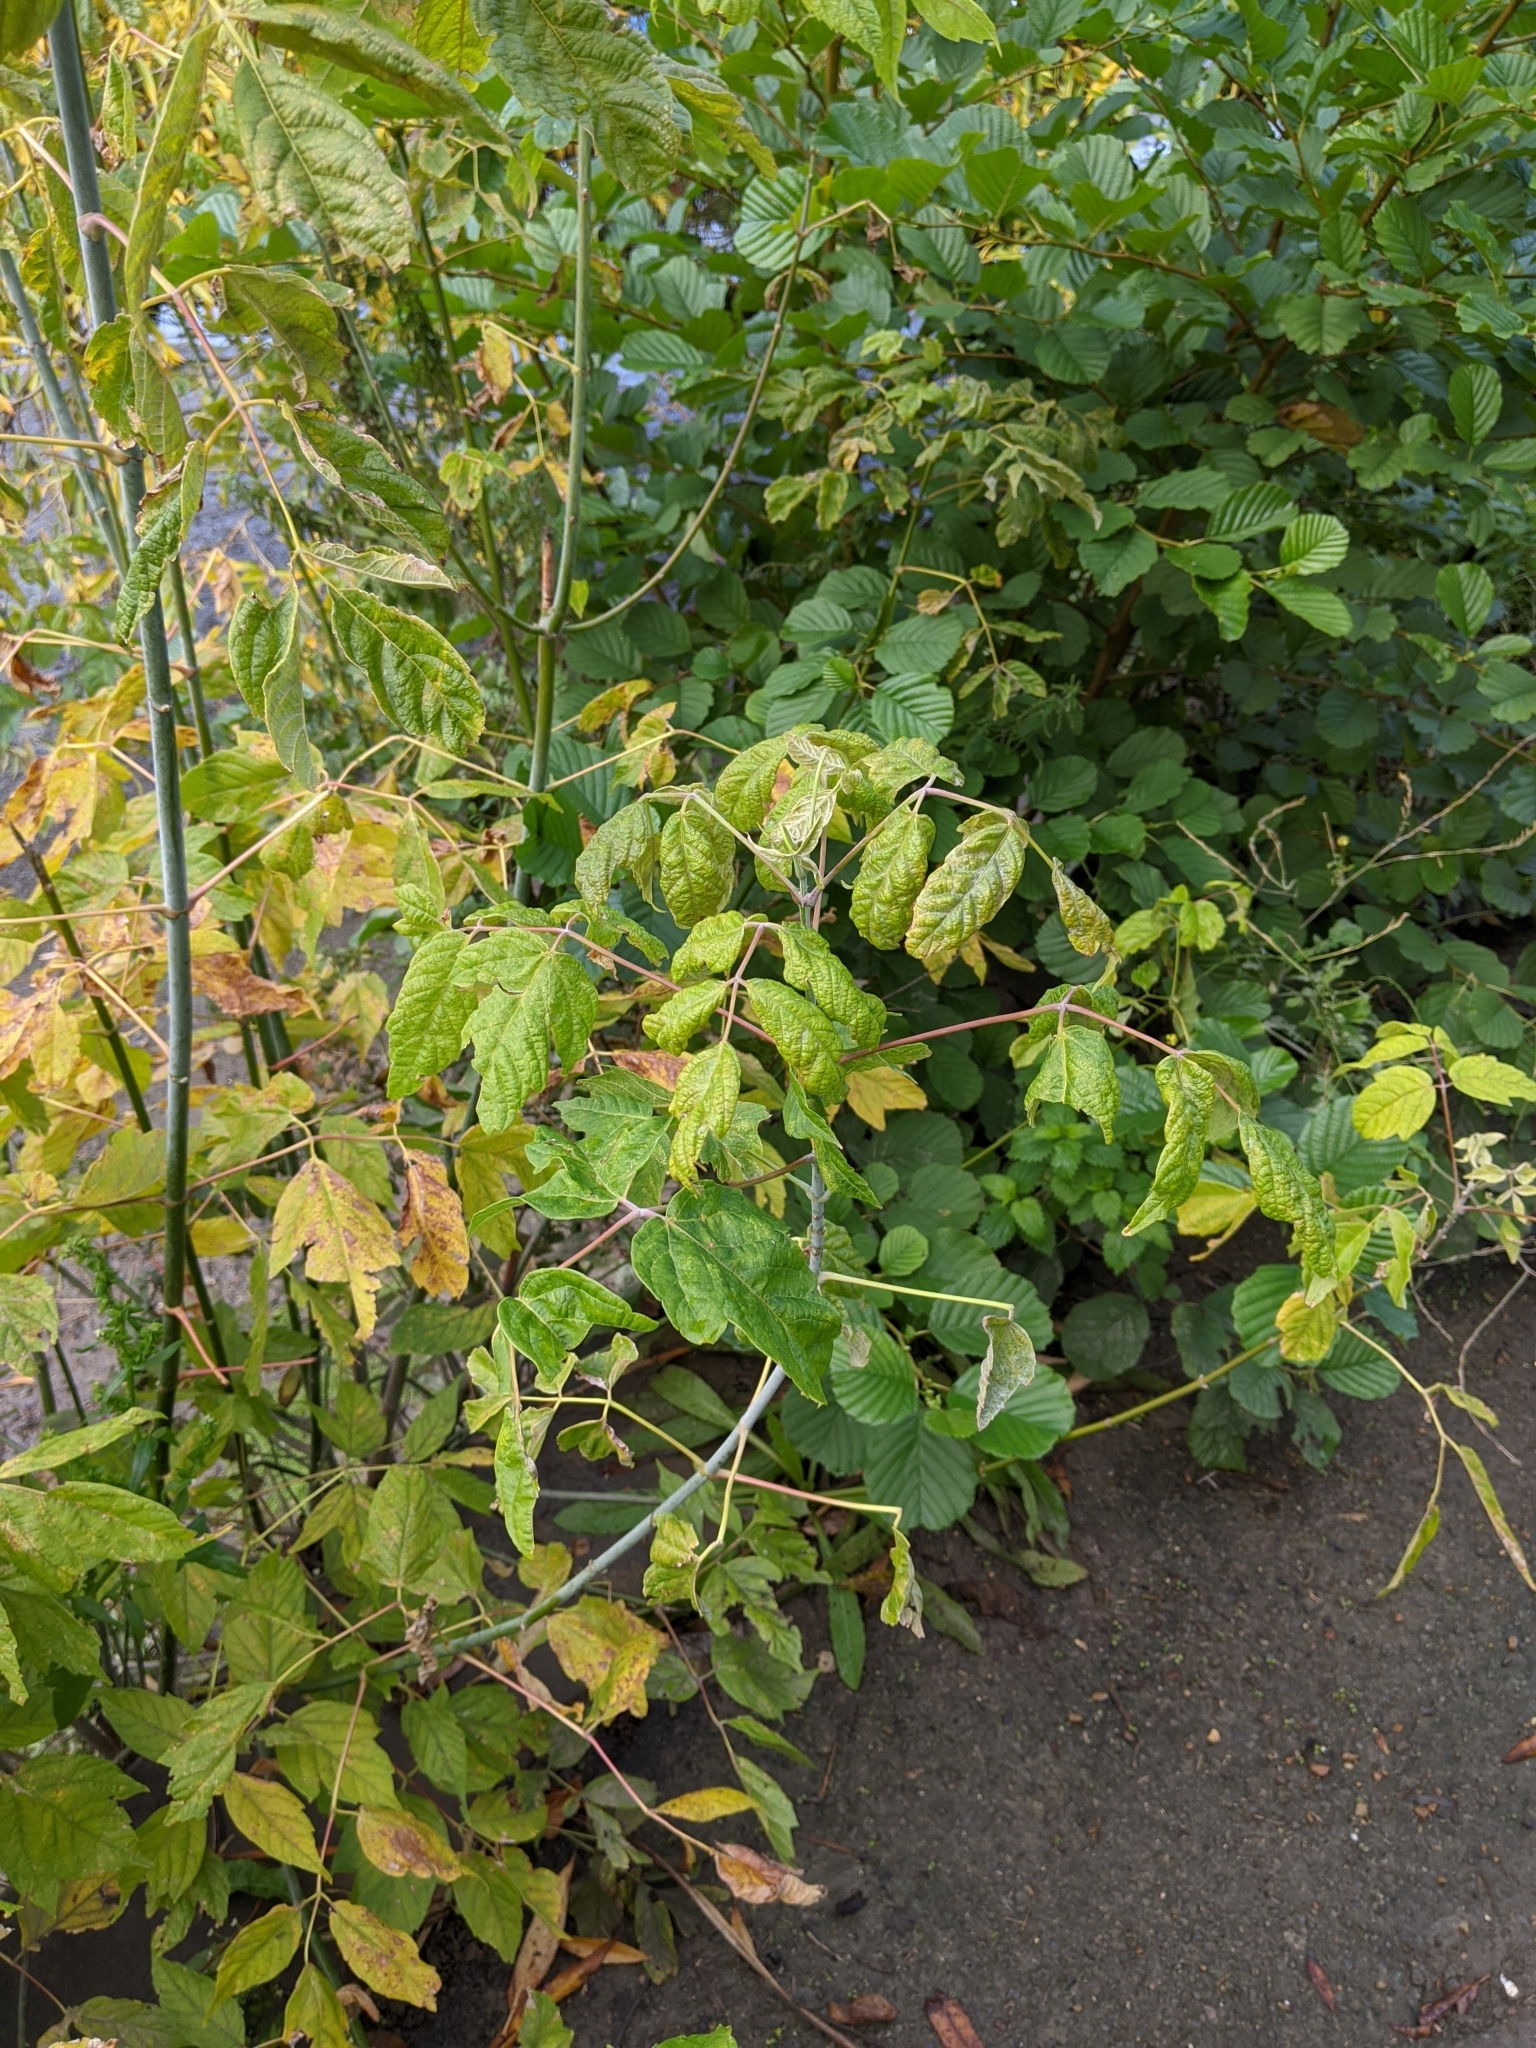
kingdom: Plantae
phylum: Tracheophyta
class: Magnoliopsida
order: Sapindales
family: Sapindaceae
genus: Acer
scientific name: Acer negundo
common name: Ashleaf maple
